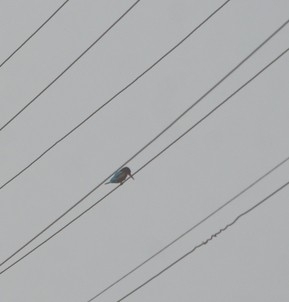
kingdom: Animalia
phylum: Chordata
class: Aves
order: Coraciiformes
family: Alcedinidae
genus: Halcyon
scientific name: Halcyon smyrnensis
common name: White-throated kingfisher
